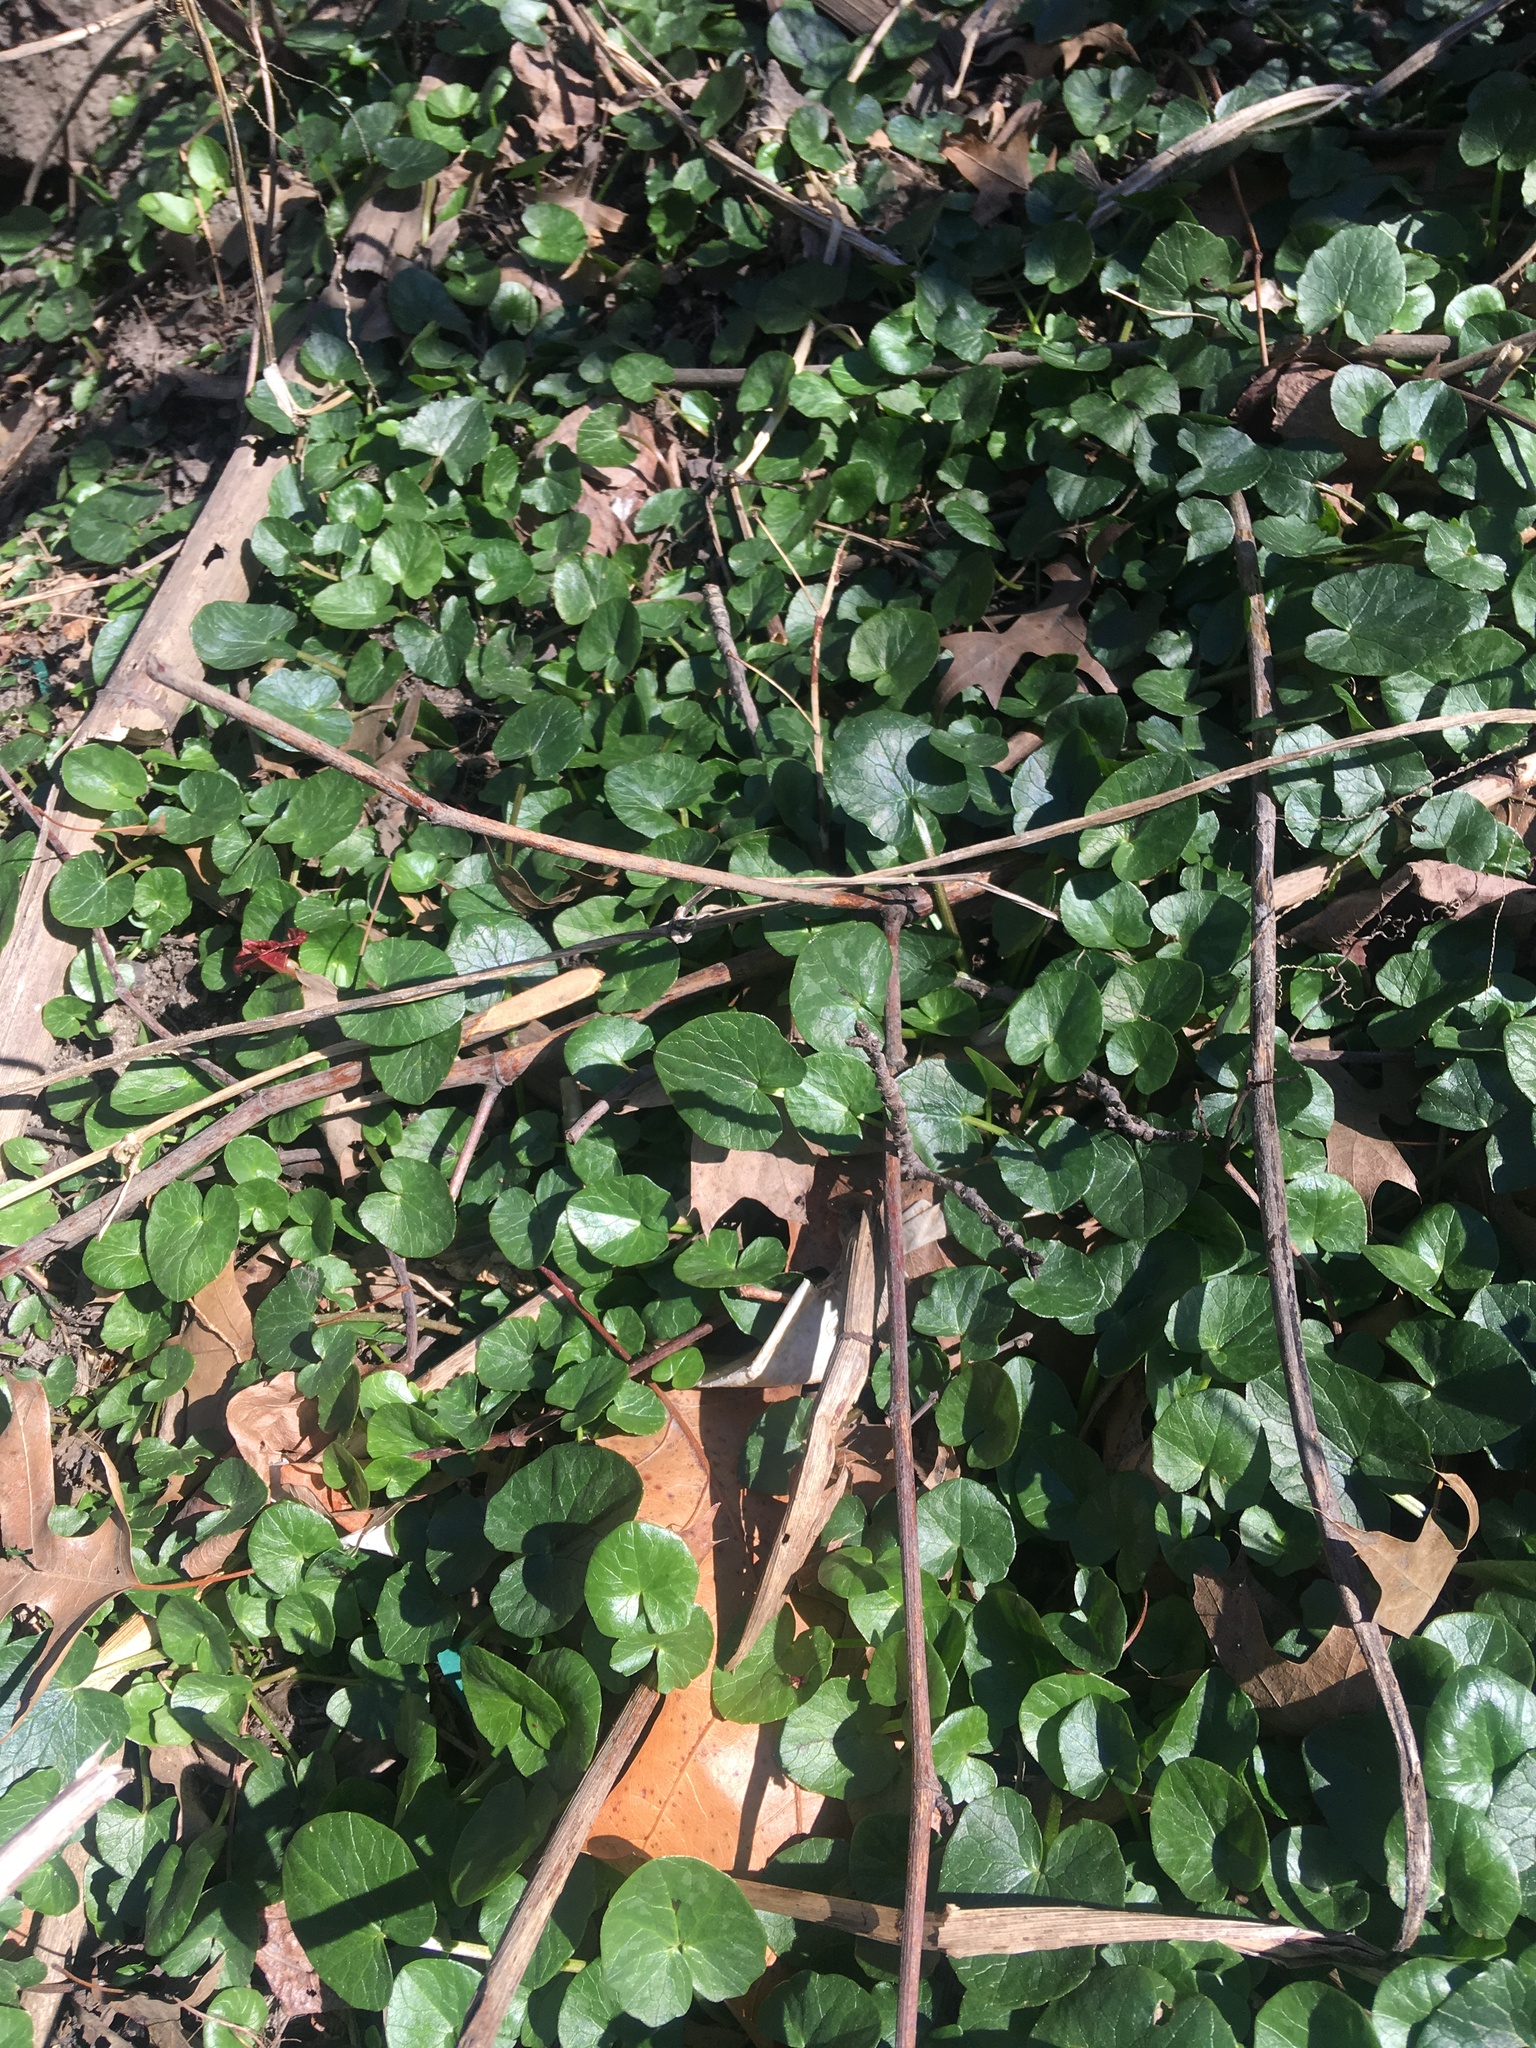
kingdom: Plantae
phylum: Tracheophyta
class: Magnoliopsida
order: Ranunculales
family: Ranunculaceae
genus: Ficaria
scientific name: Ficaria verna
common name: Lesser celandine
